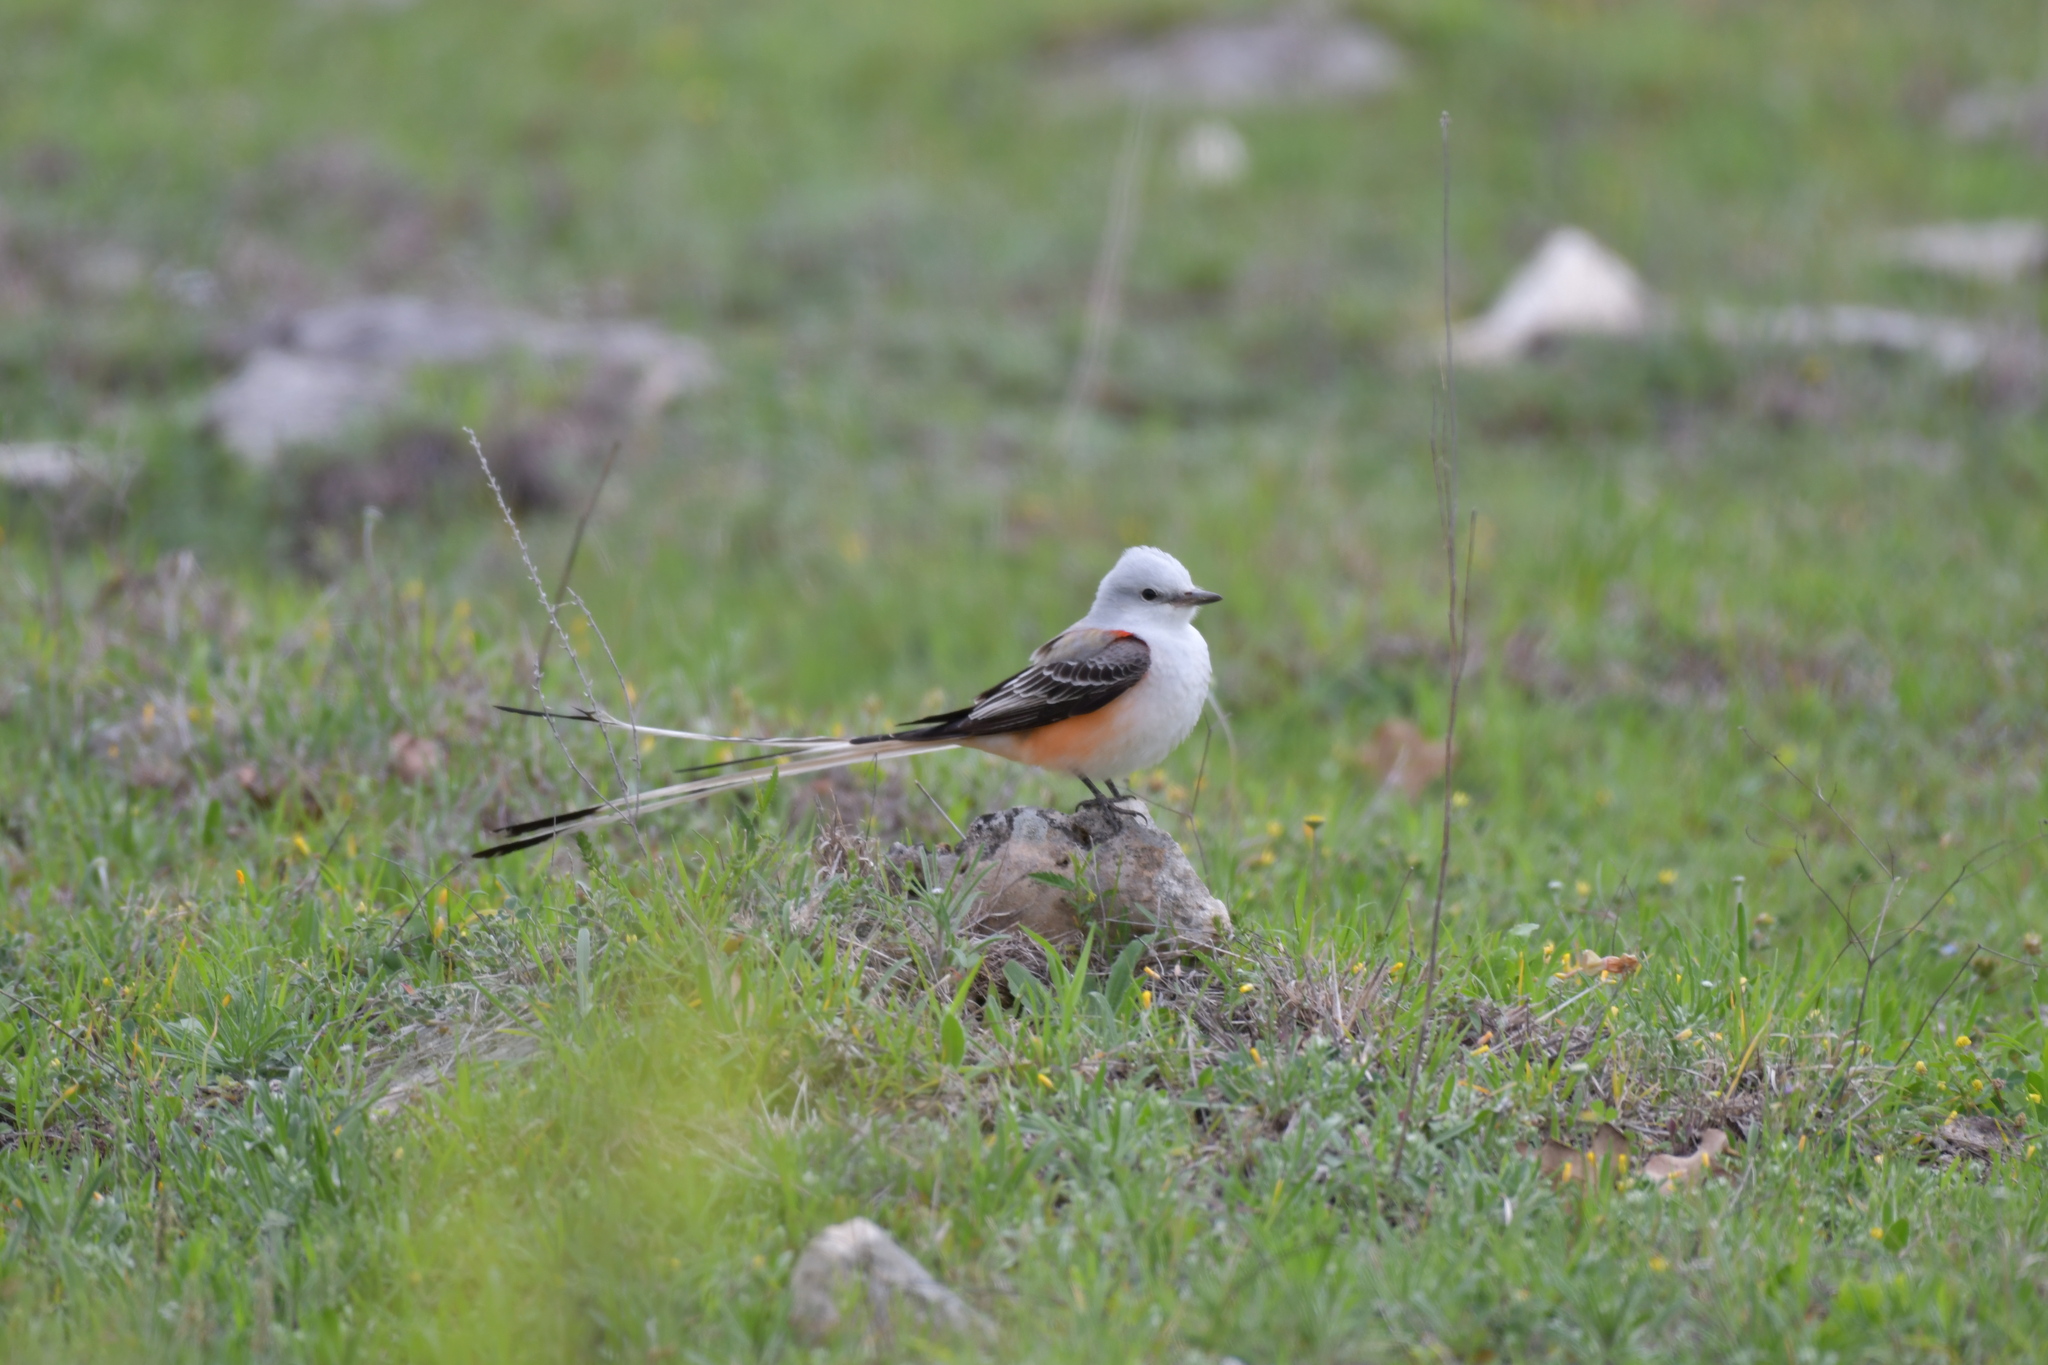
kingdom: Animalia
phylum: Chordata
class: Aves
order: Passeriformes
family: Tyrannidae
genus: Tyrannus
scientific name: Tyrannus forficatus
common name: Scissor-tailed flycatcher
